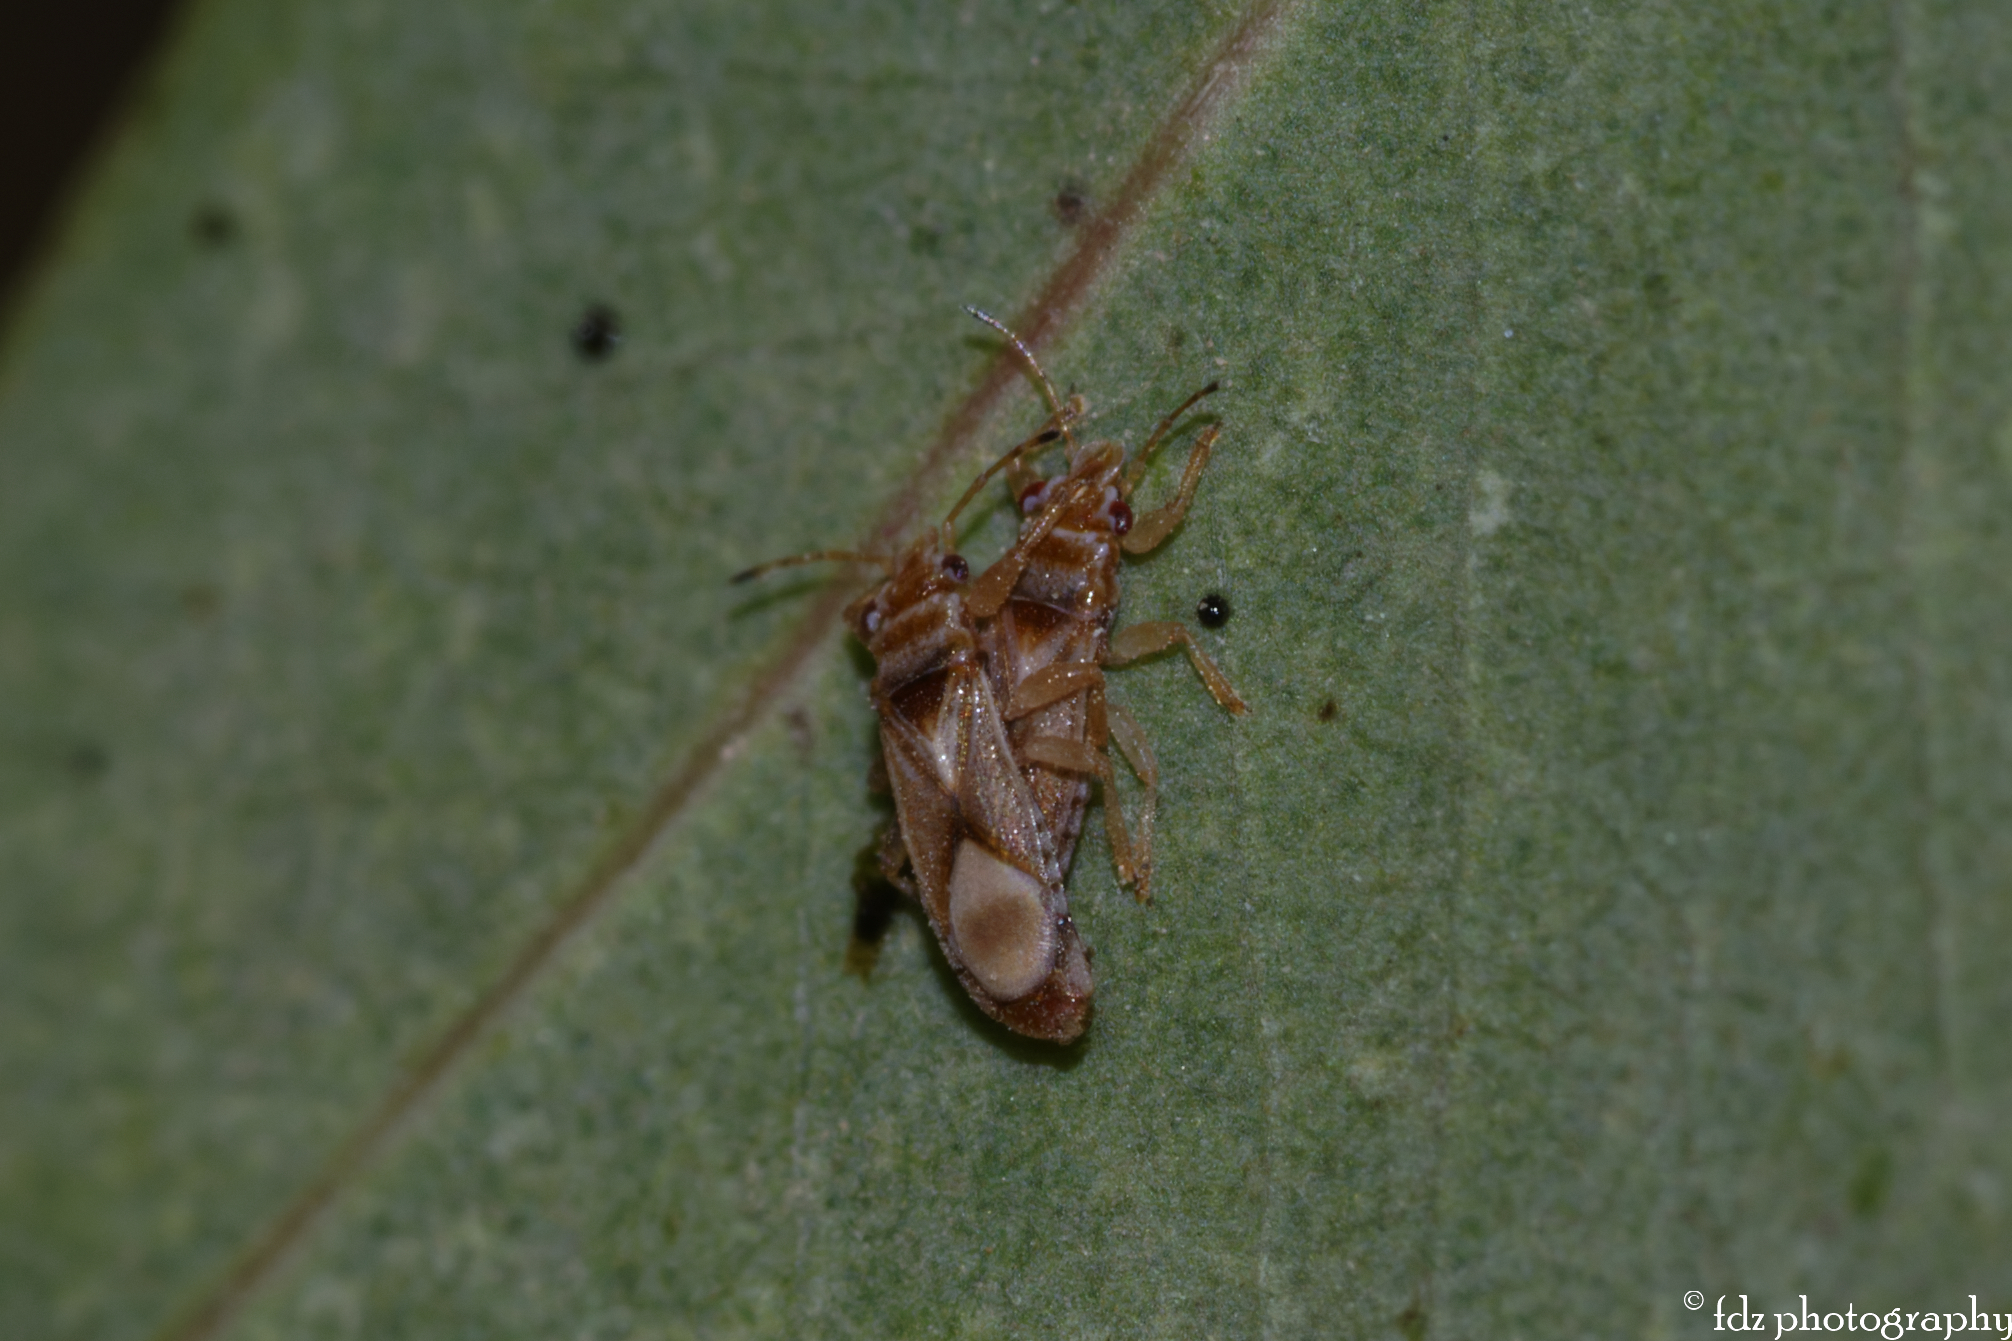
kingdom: Animalia
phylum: Arthropoda
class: Insecta
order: Hemiptera
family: Thaumastocoridae
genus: Thaumastocoris
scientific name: Thaumastocoris peregrinus
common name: Bronze bug
